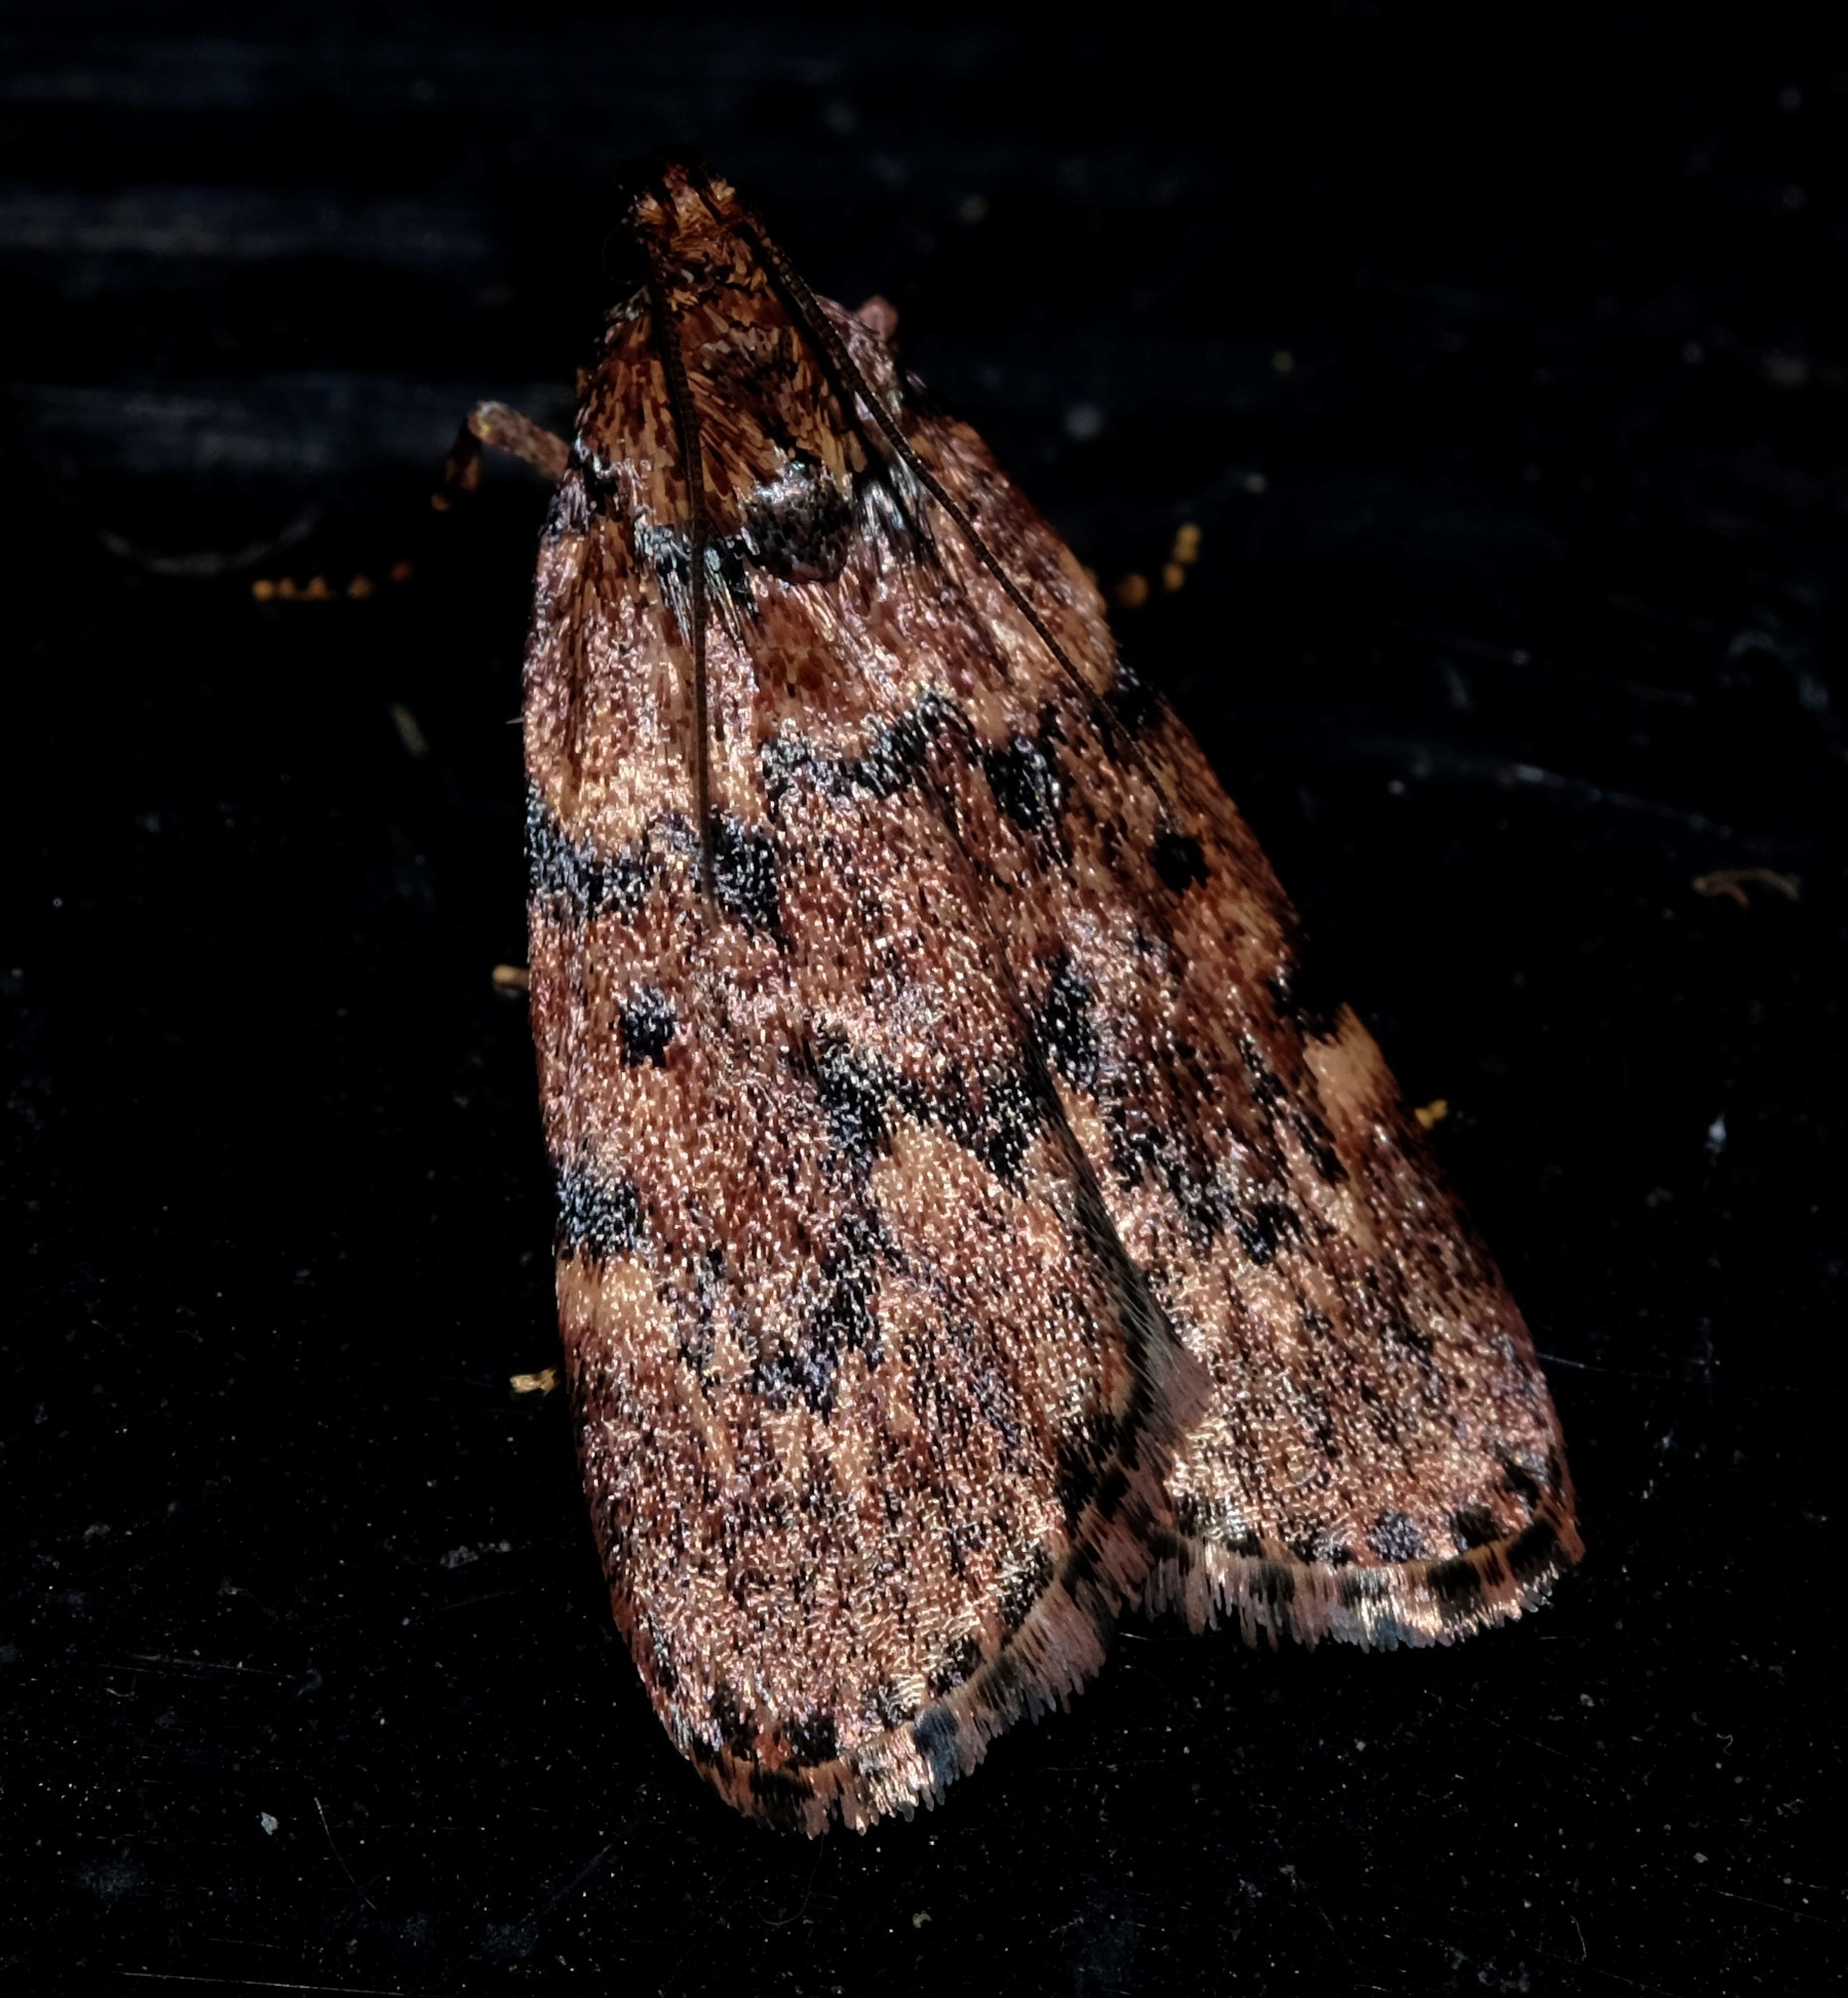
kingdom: Animalia
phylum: Arthropoda
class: Insecta
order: Lepidoptera
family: Pyralidae
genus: Mimaglossa
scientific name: Mimaglossa nauplialis
